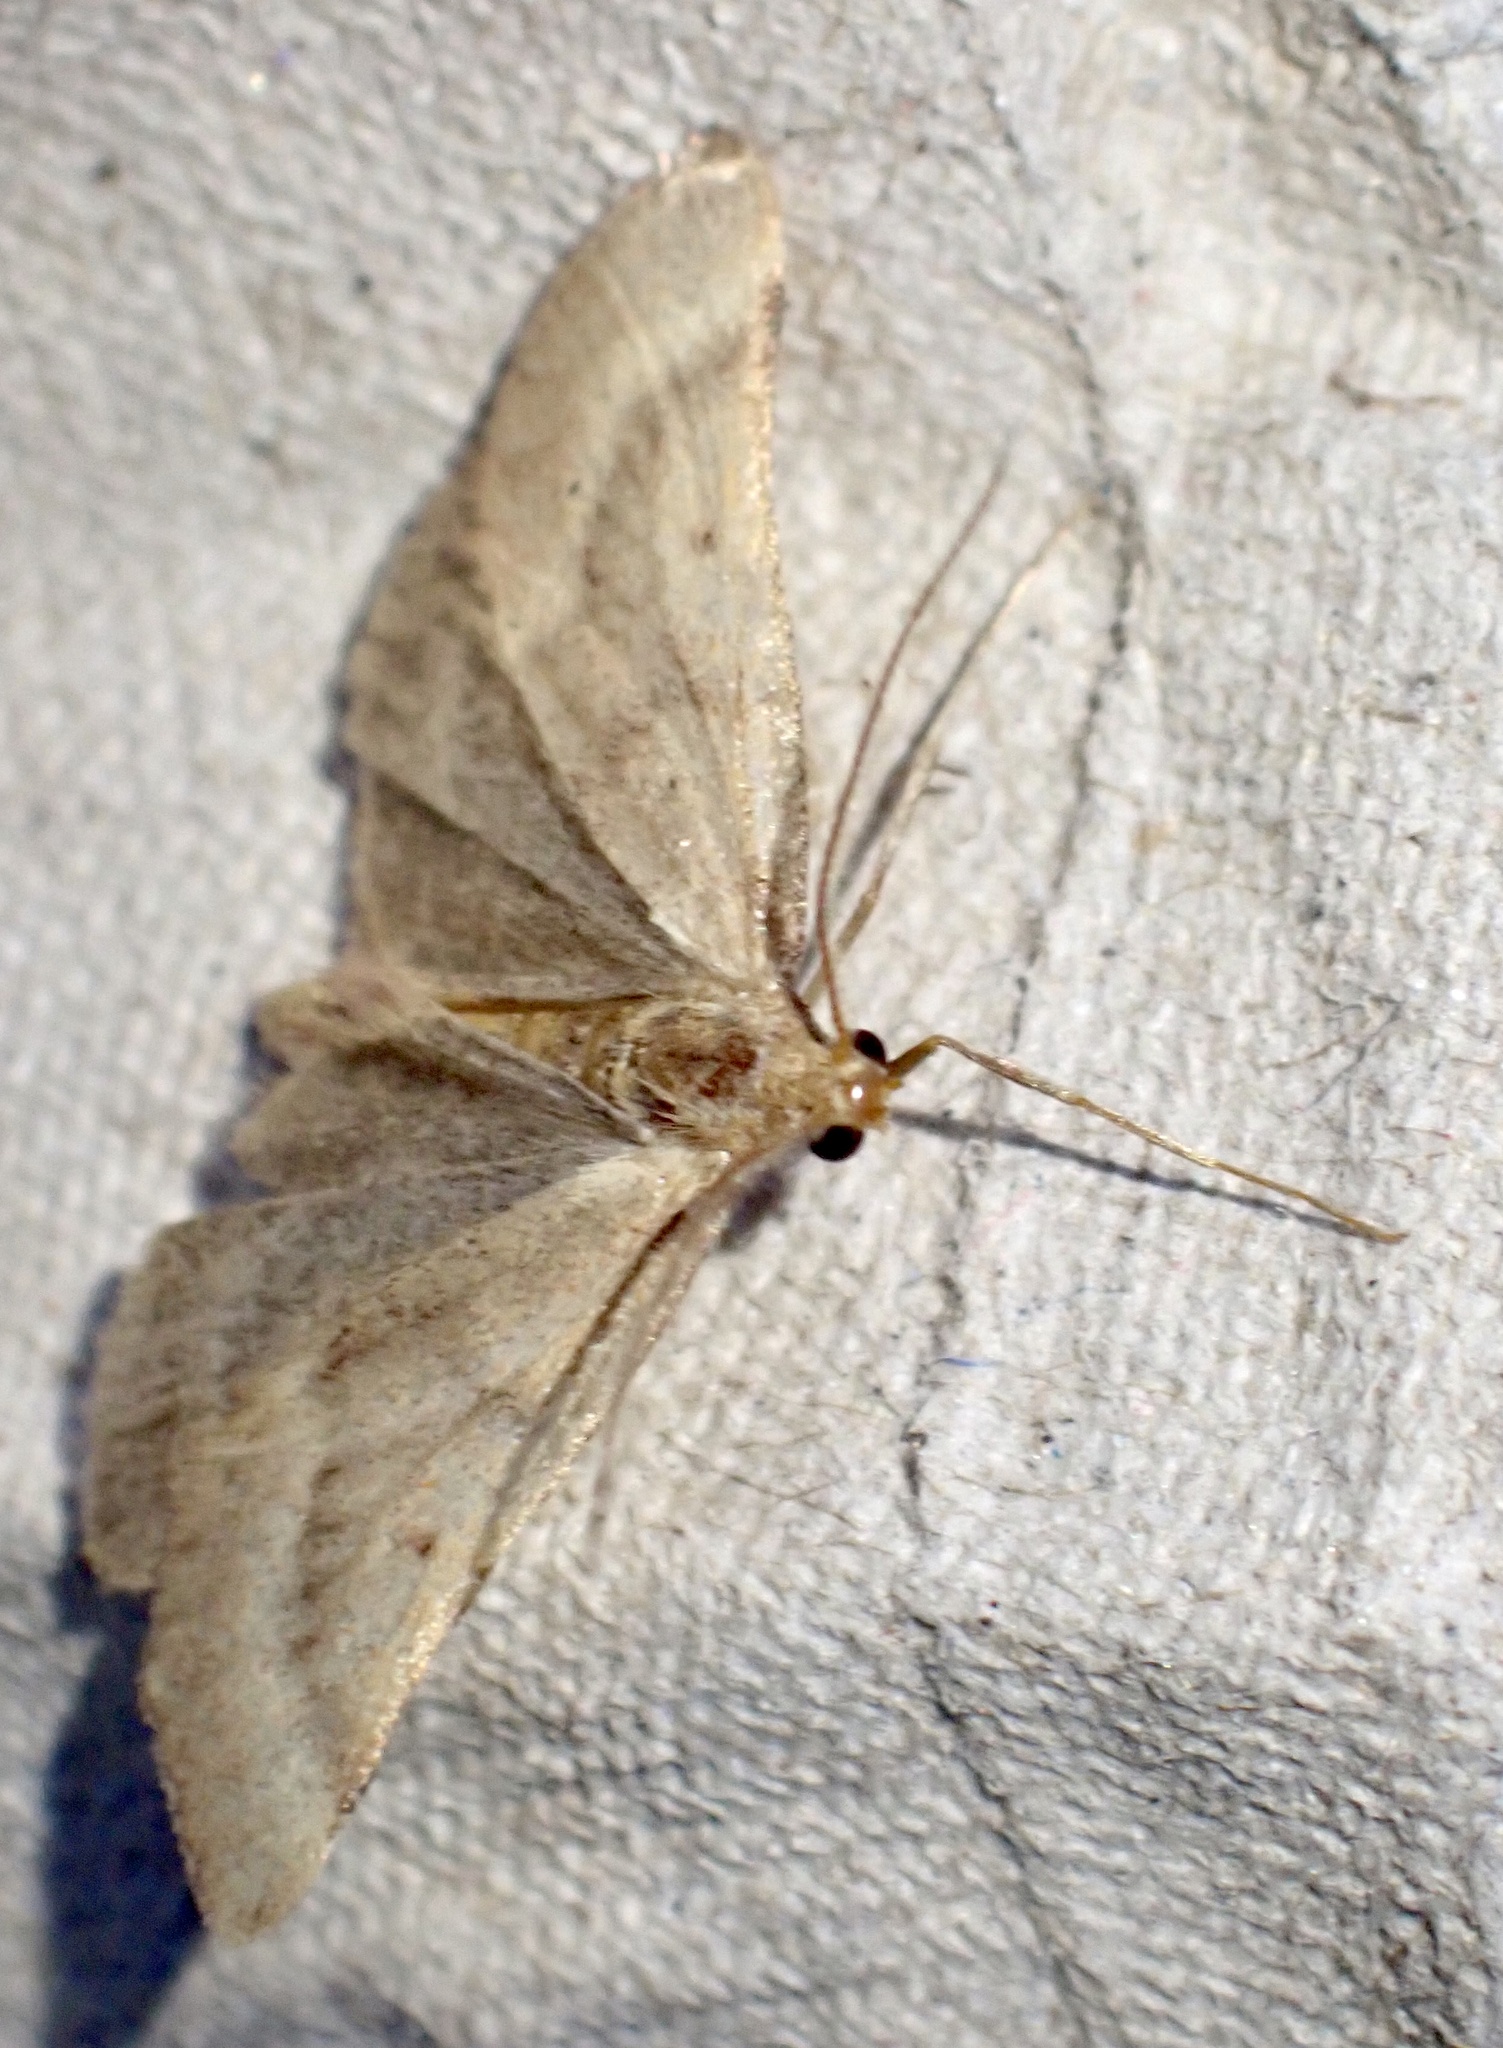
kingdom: Animalia
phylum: Arthropoda
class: Insecta
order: Lepidoptera
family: Pyralidae
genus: Synaphe
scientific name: Synaphe punctalis
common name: Long-legged tabby
